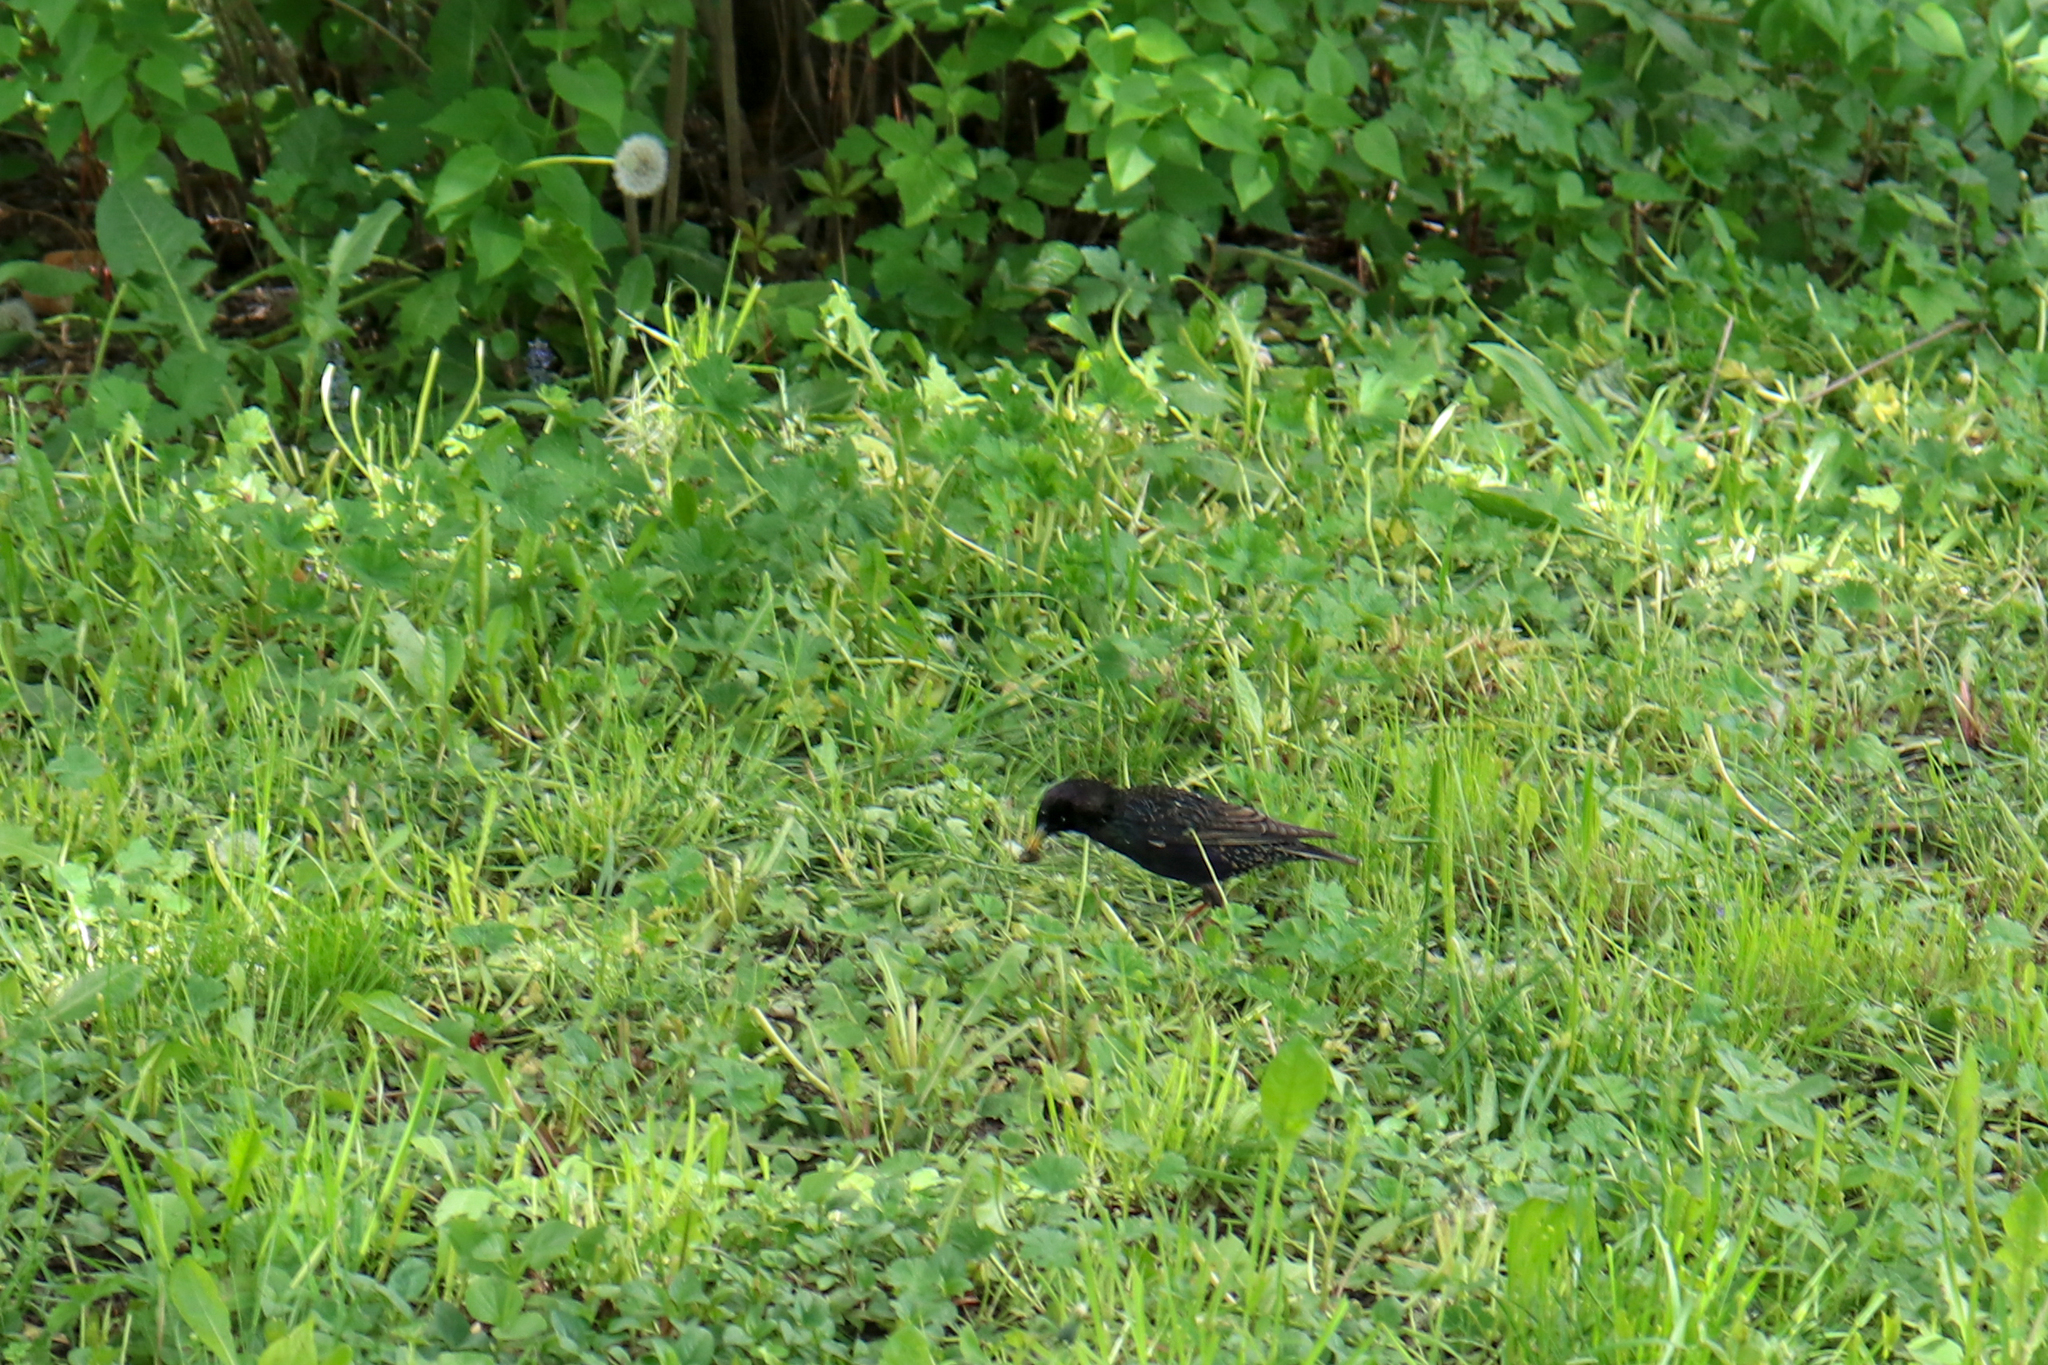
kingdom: Animalia
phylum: Chordata
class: Aves
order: Passeriformes
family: Sturnidae
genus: Sturnus
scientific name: Sturnus vulgaris
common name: Common starling
